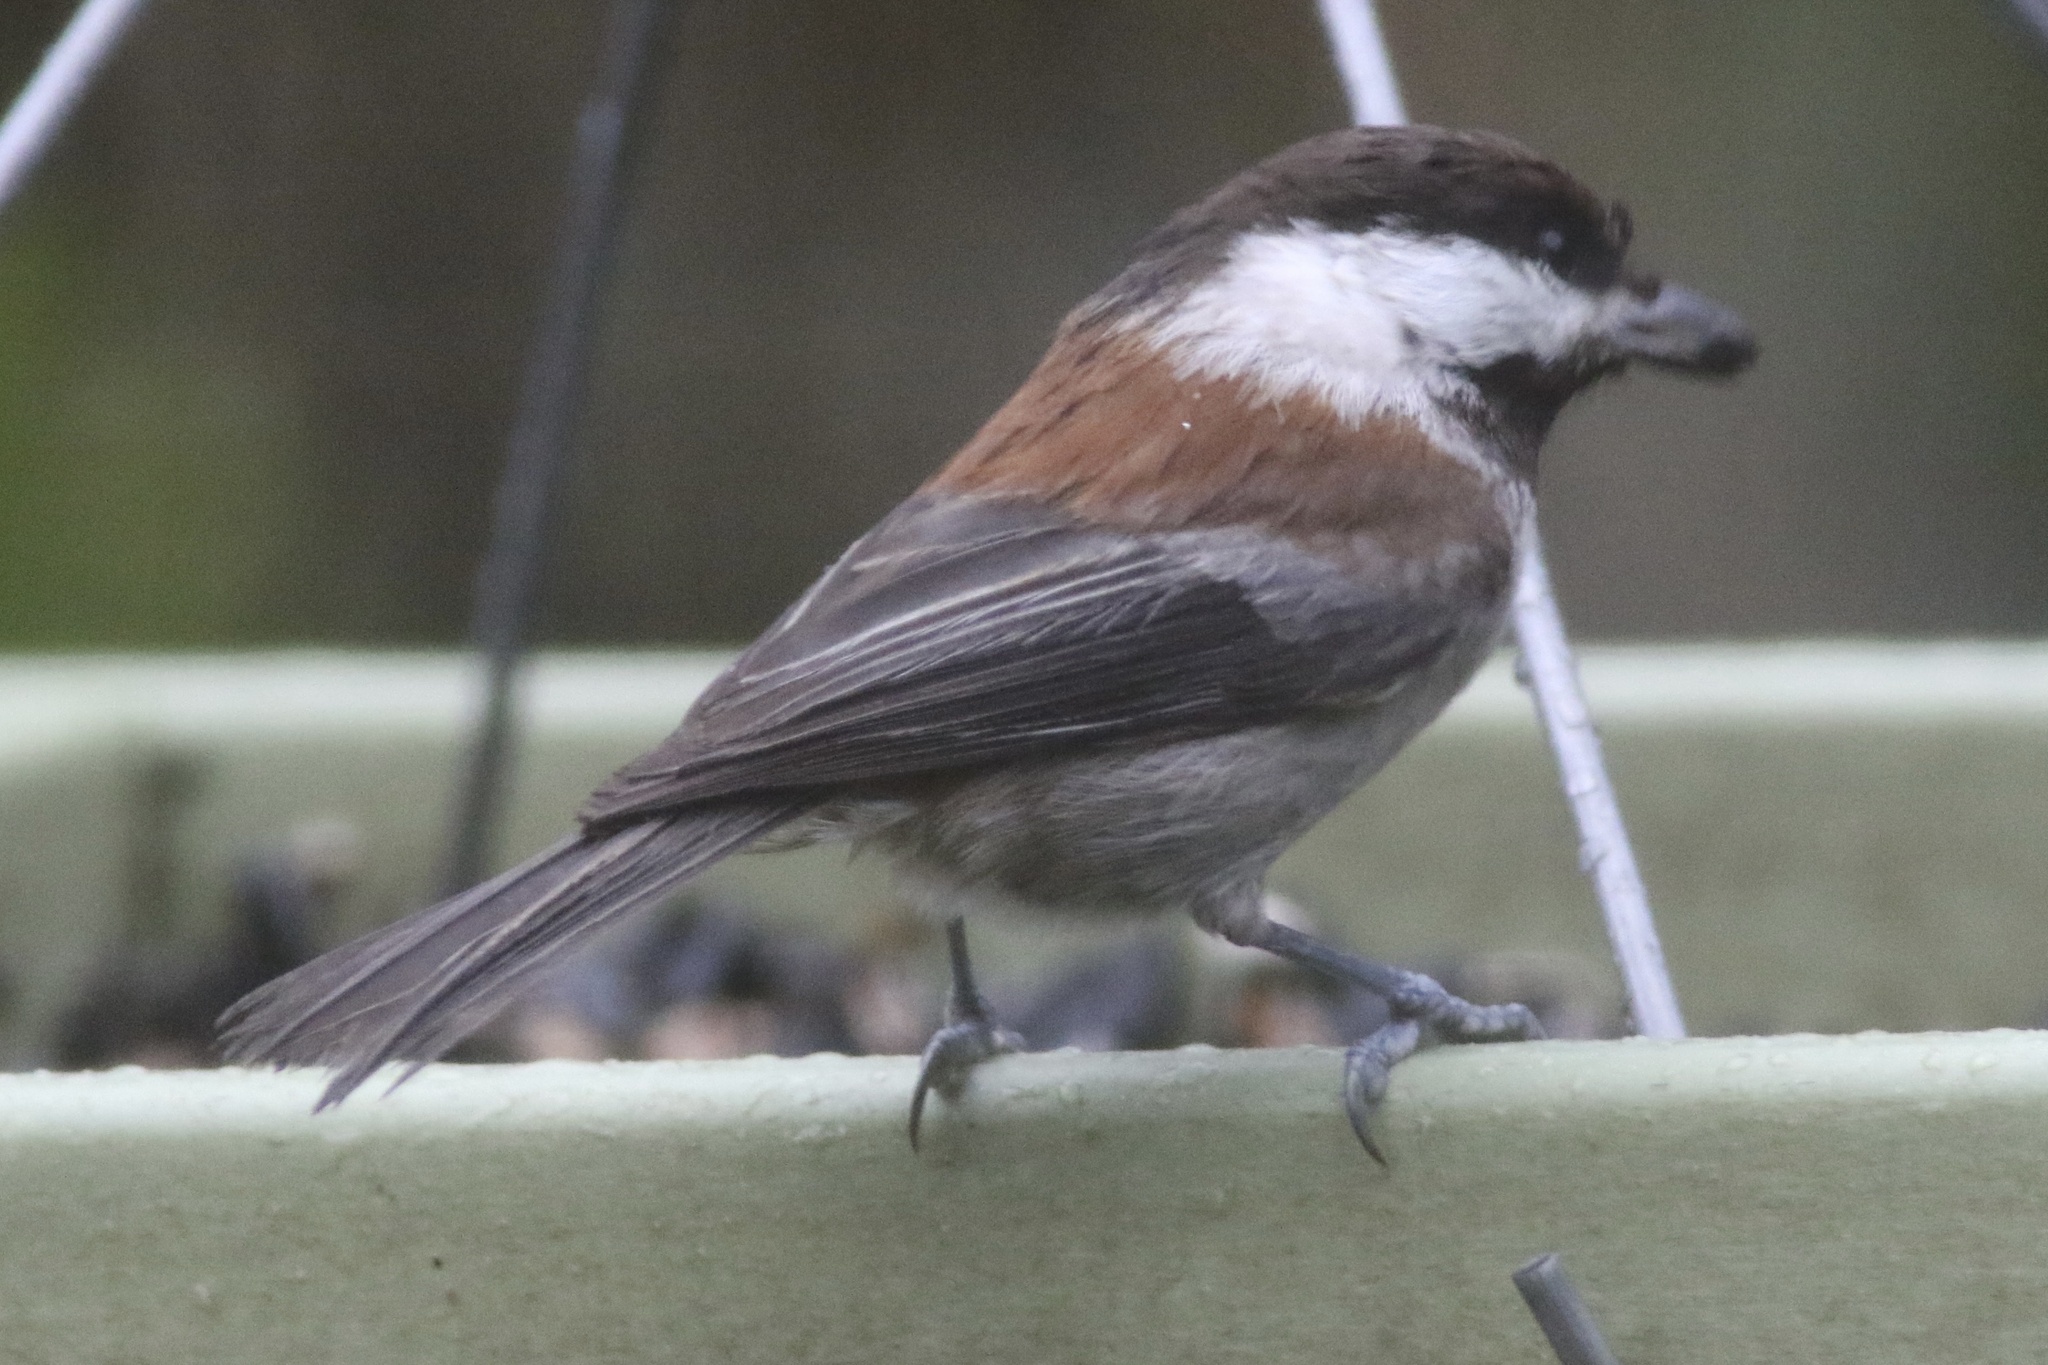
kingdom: Animalia
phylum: Chordata
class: Aves
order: Passeriformes
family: Paridae
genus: Poecile
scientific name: Poecile rufescens
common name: Chestnut-backed chickadee
